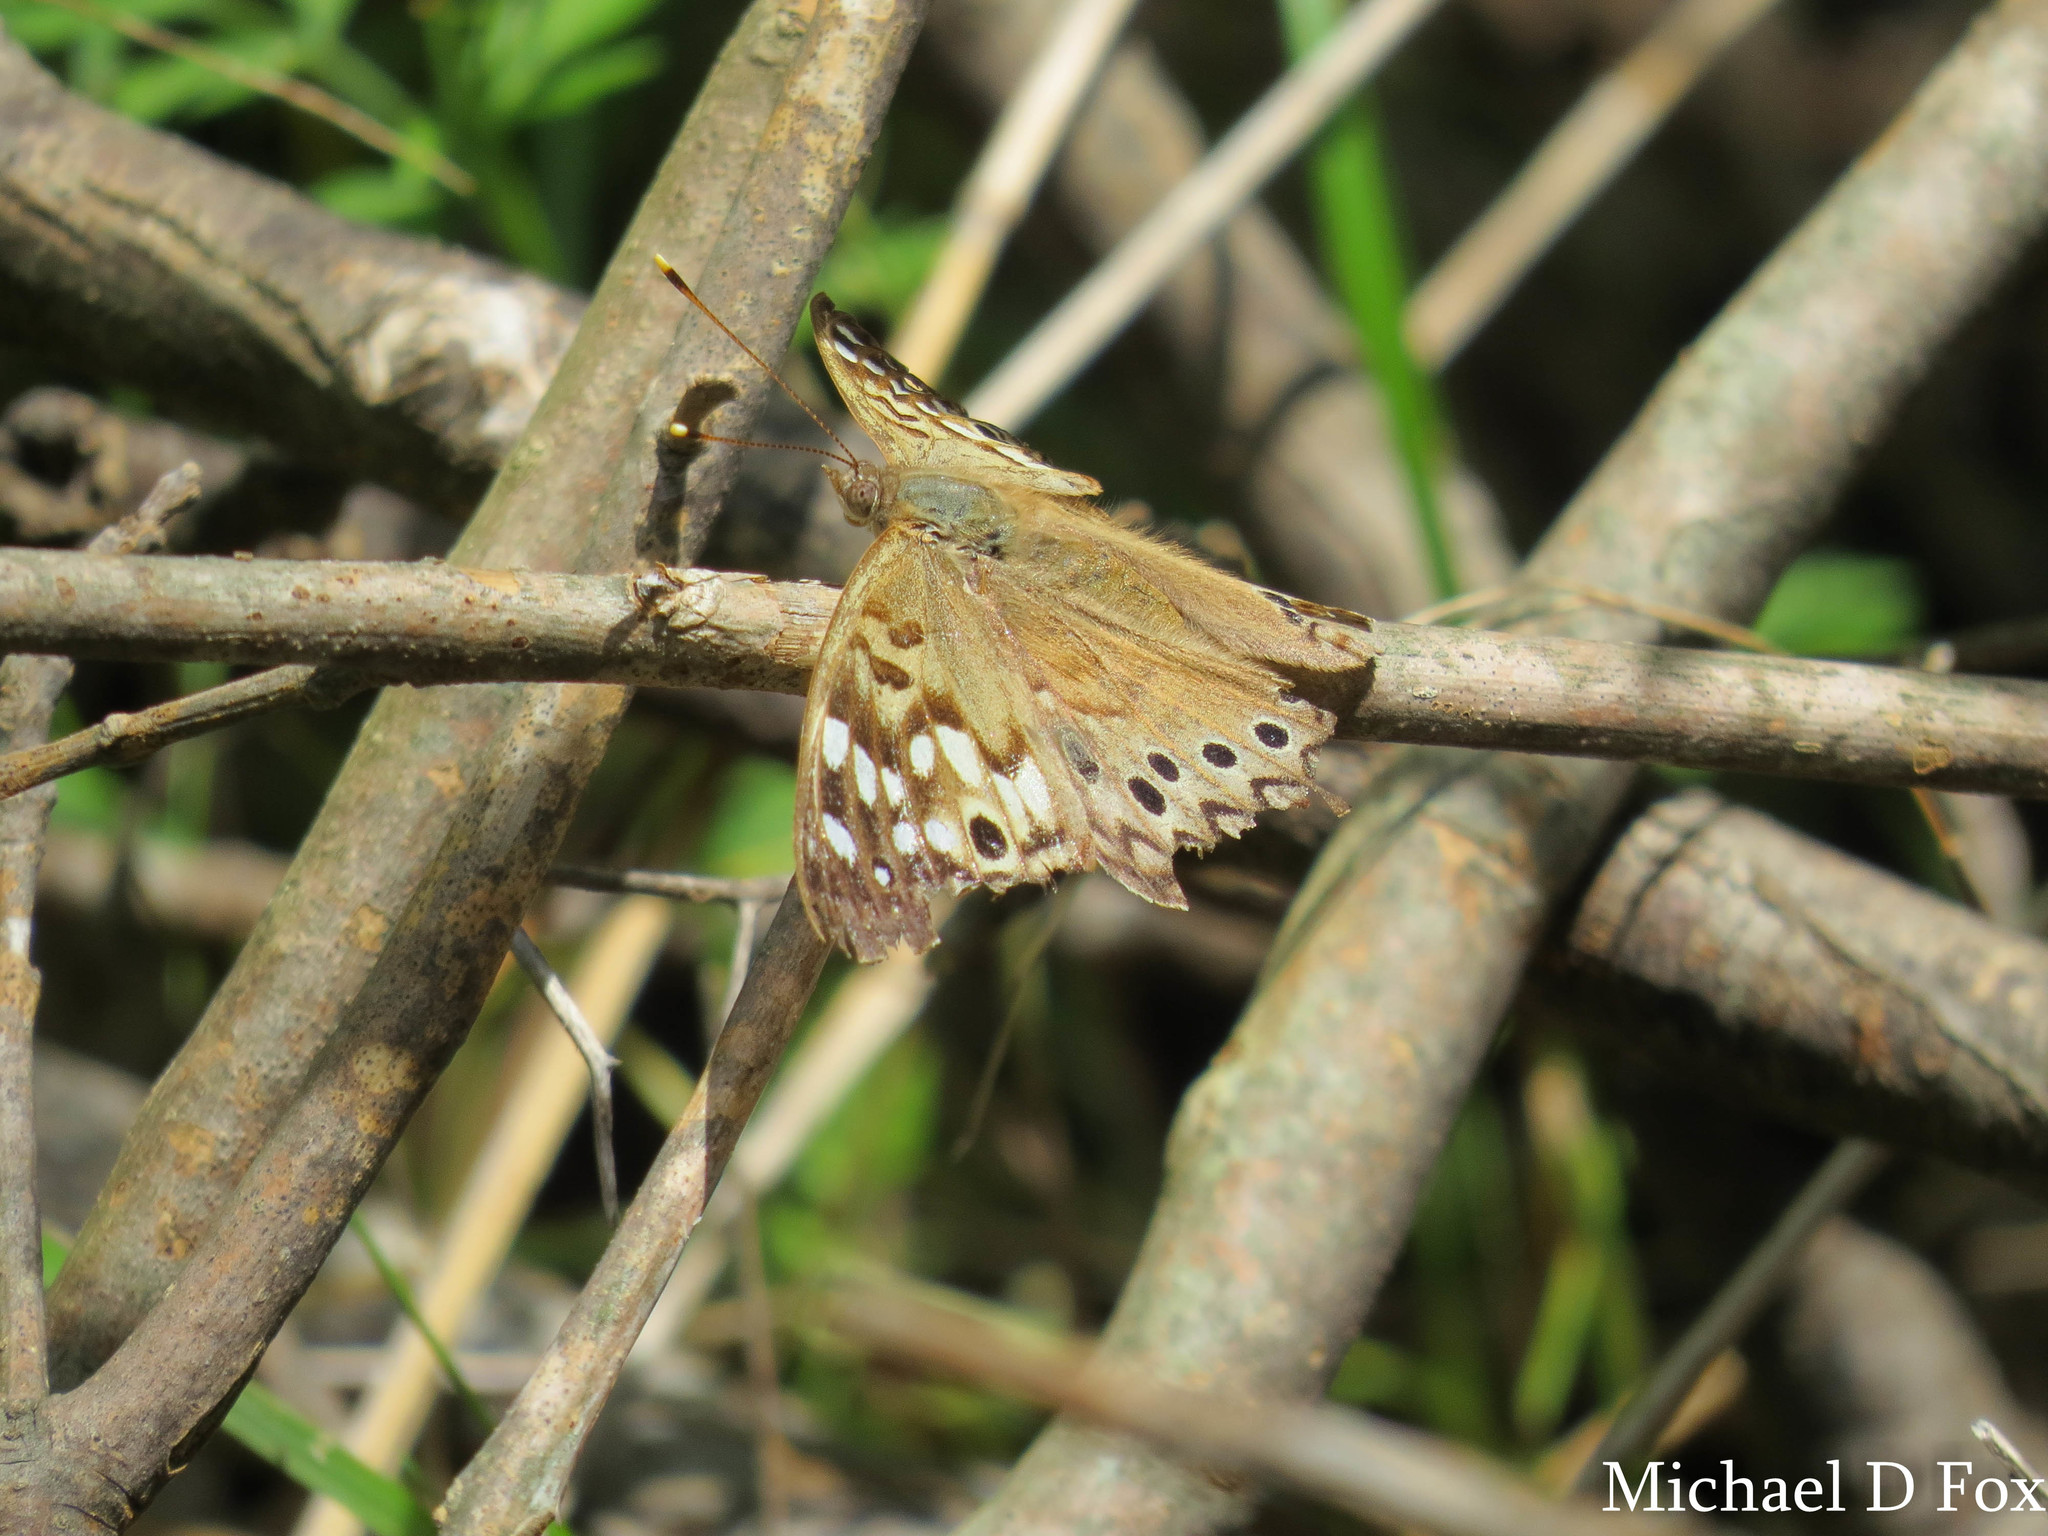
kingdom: Animalia
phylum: Arthropoda
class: Insecta
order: Lepidoptera
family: Nymphalidae
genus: Asterocampa
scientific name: Asterocampa celtis
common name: Hackberry emperor
